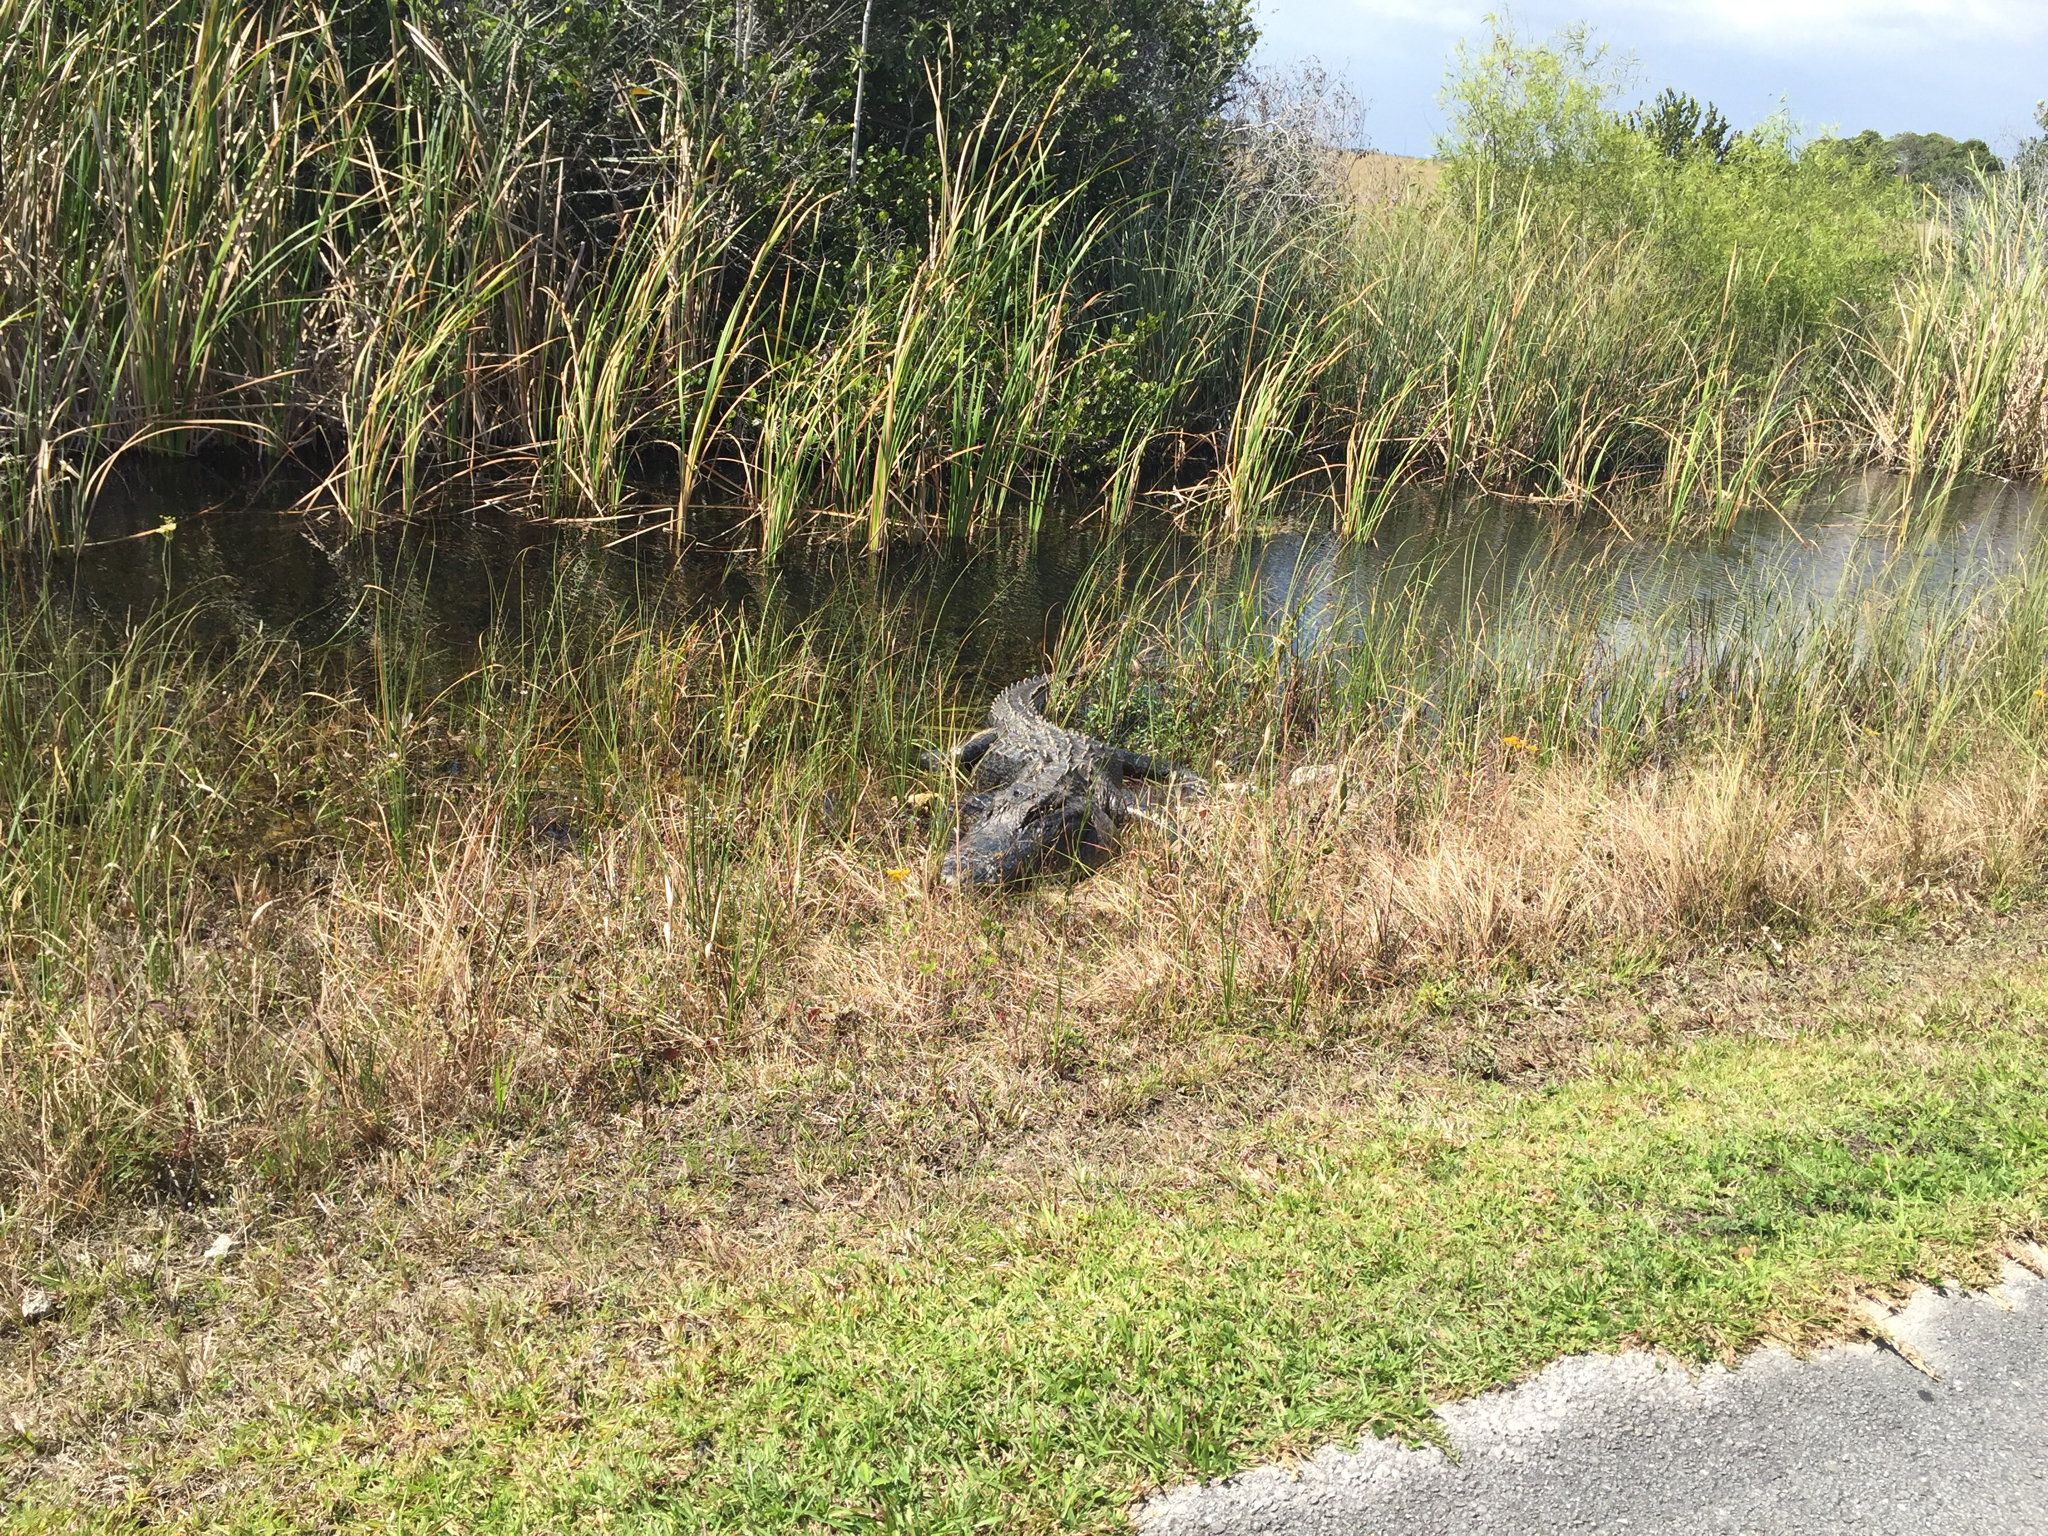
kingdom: Animalia
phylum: Chordata
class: Crocodylia
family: Alligatoridae
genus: Alligator
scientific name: Alligator mississippiensis
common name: American alligator
